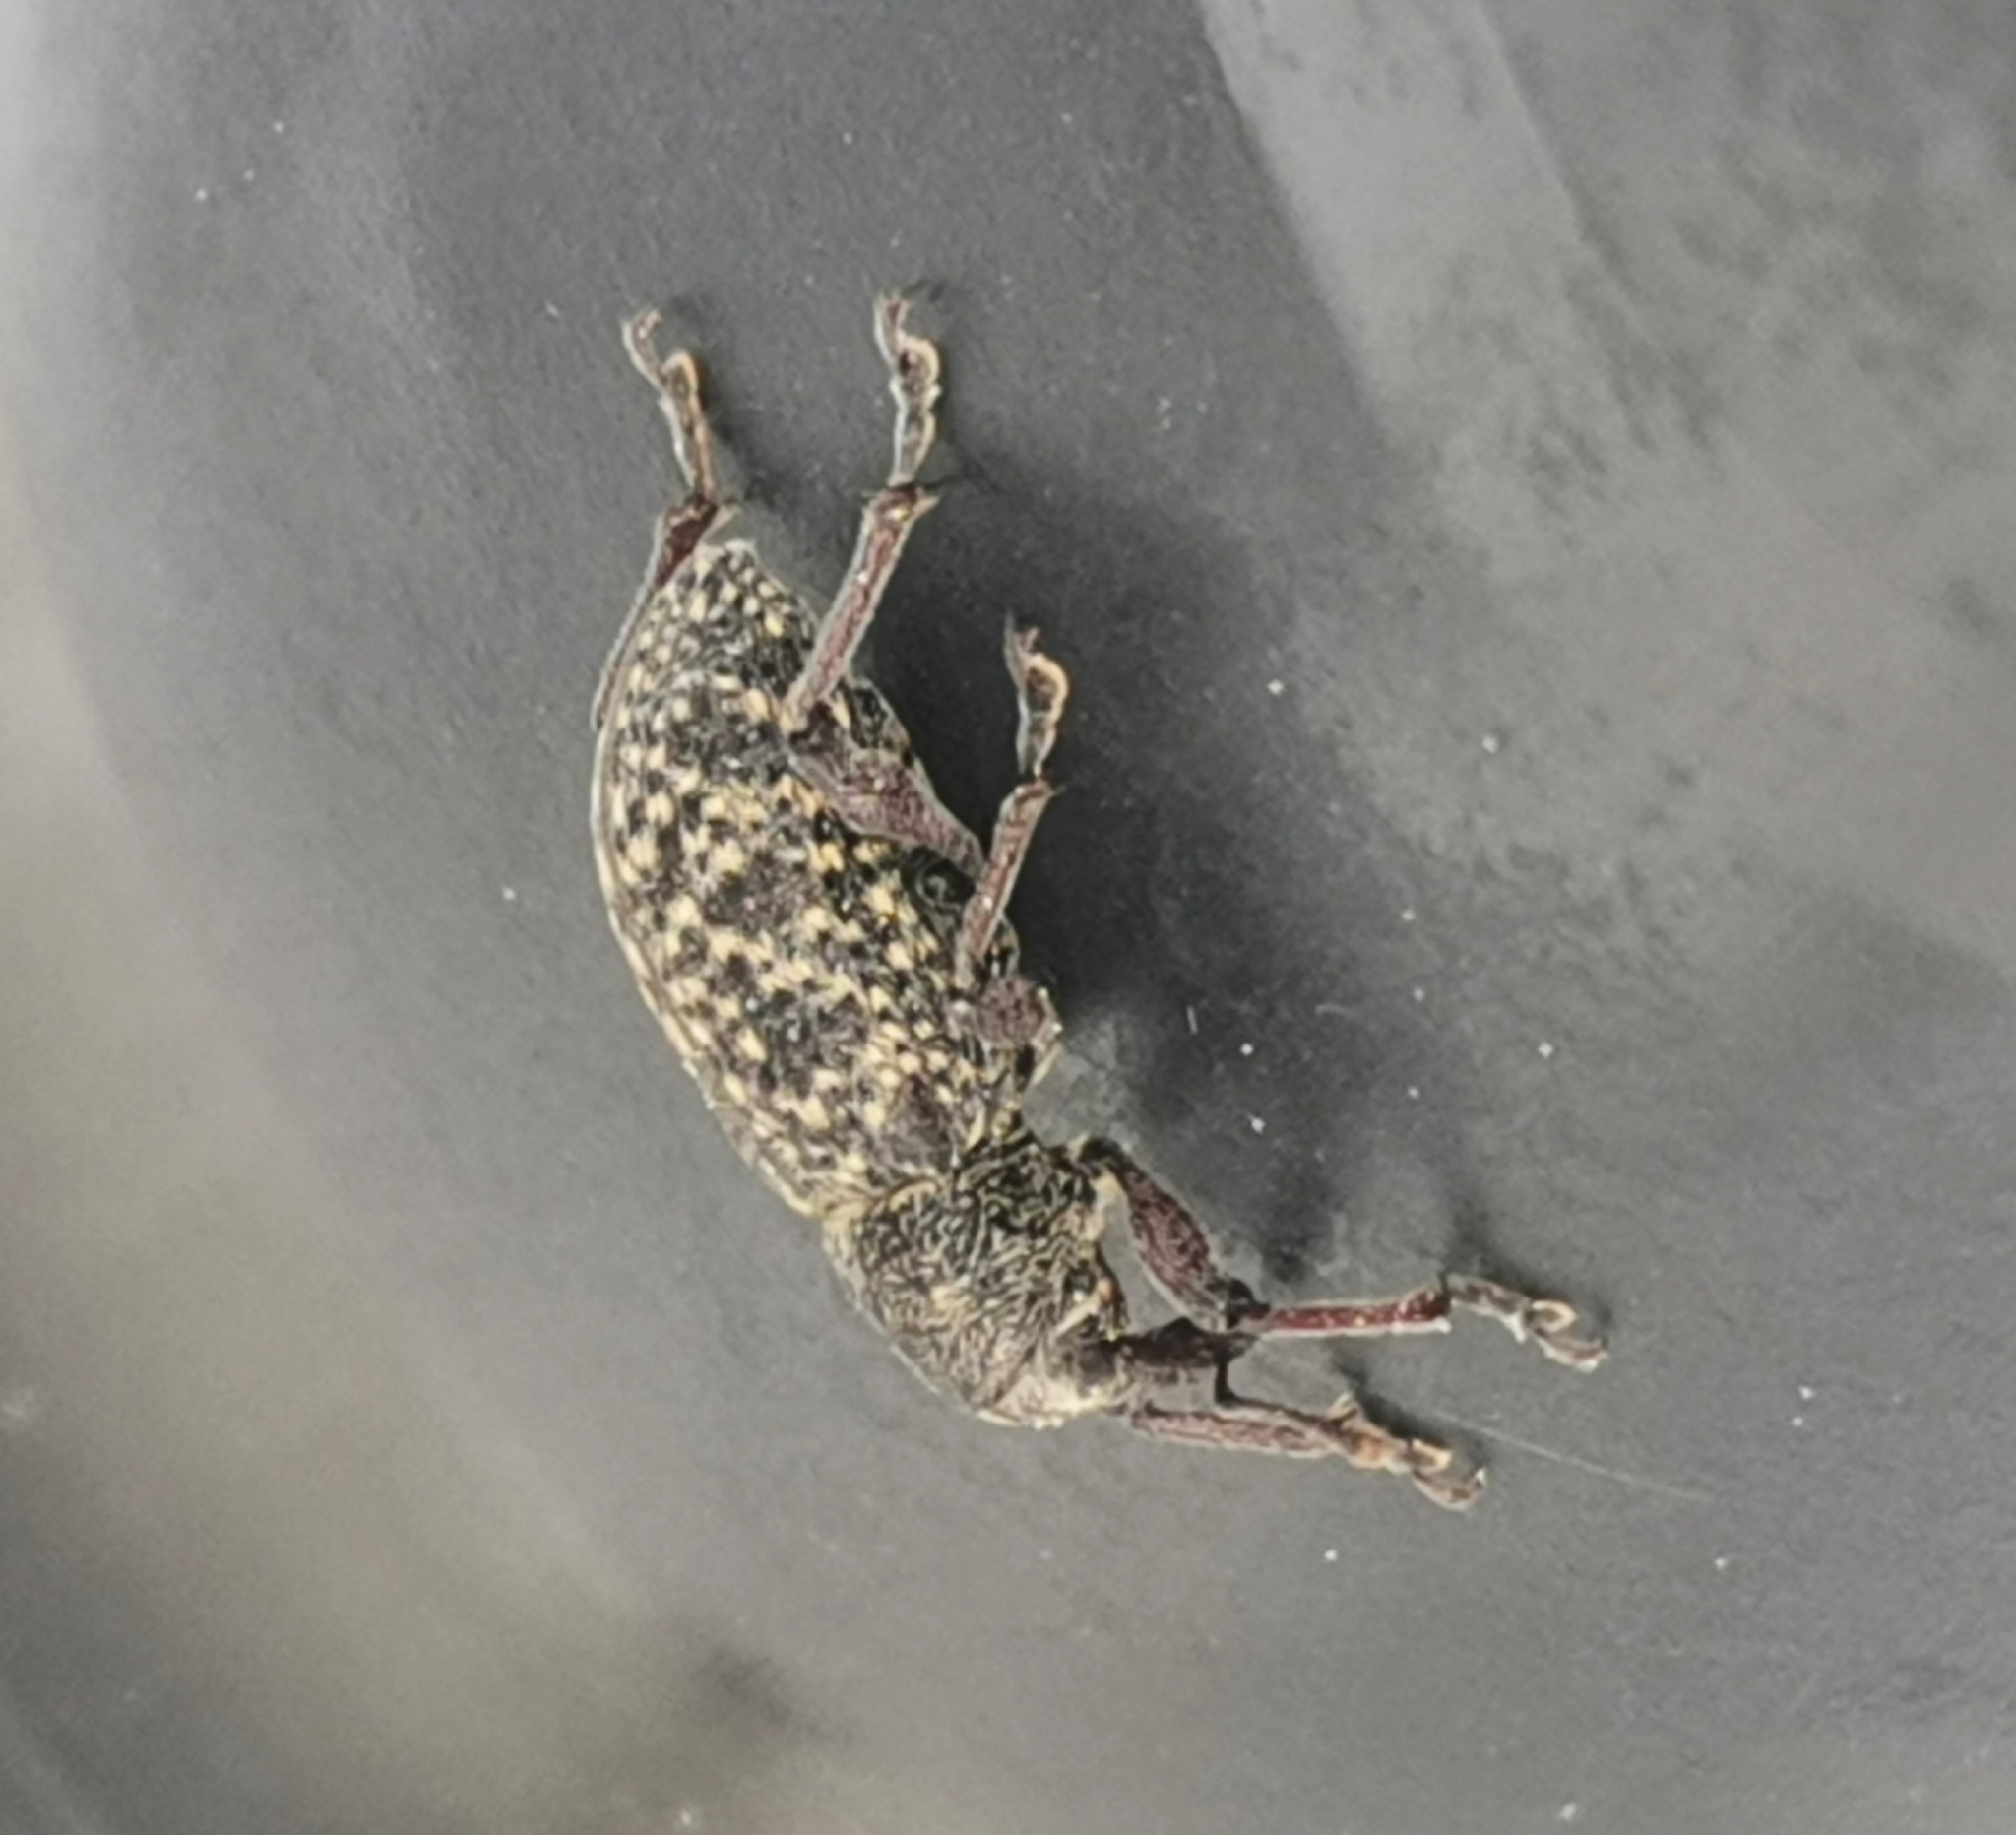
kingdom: Animalia
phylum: Arthropoda
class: Insecta
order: Coleoptera
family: Curculionidae
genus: Hylobius
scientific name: Hylobius excavatus
